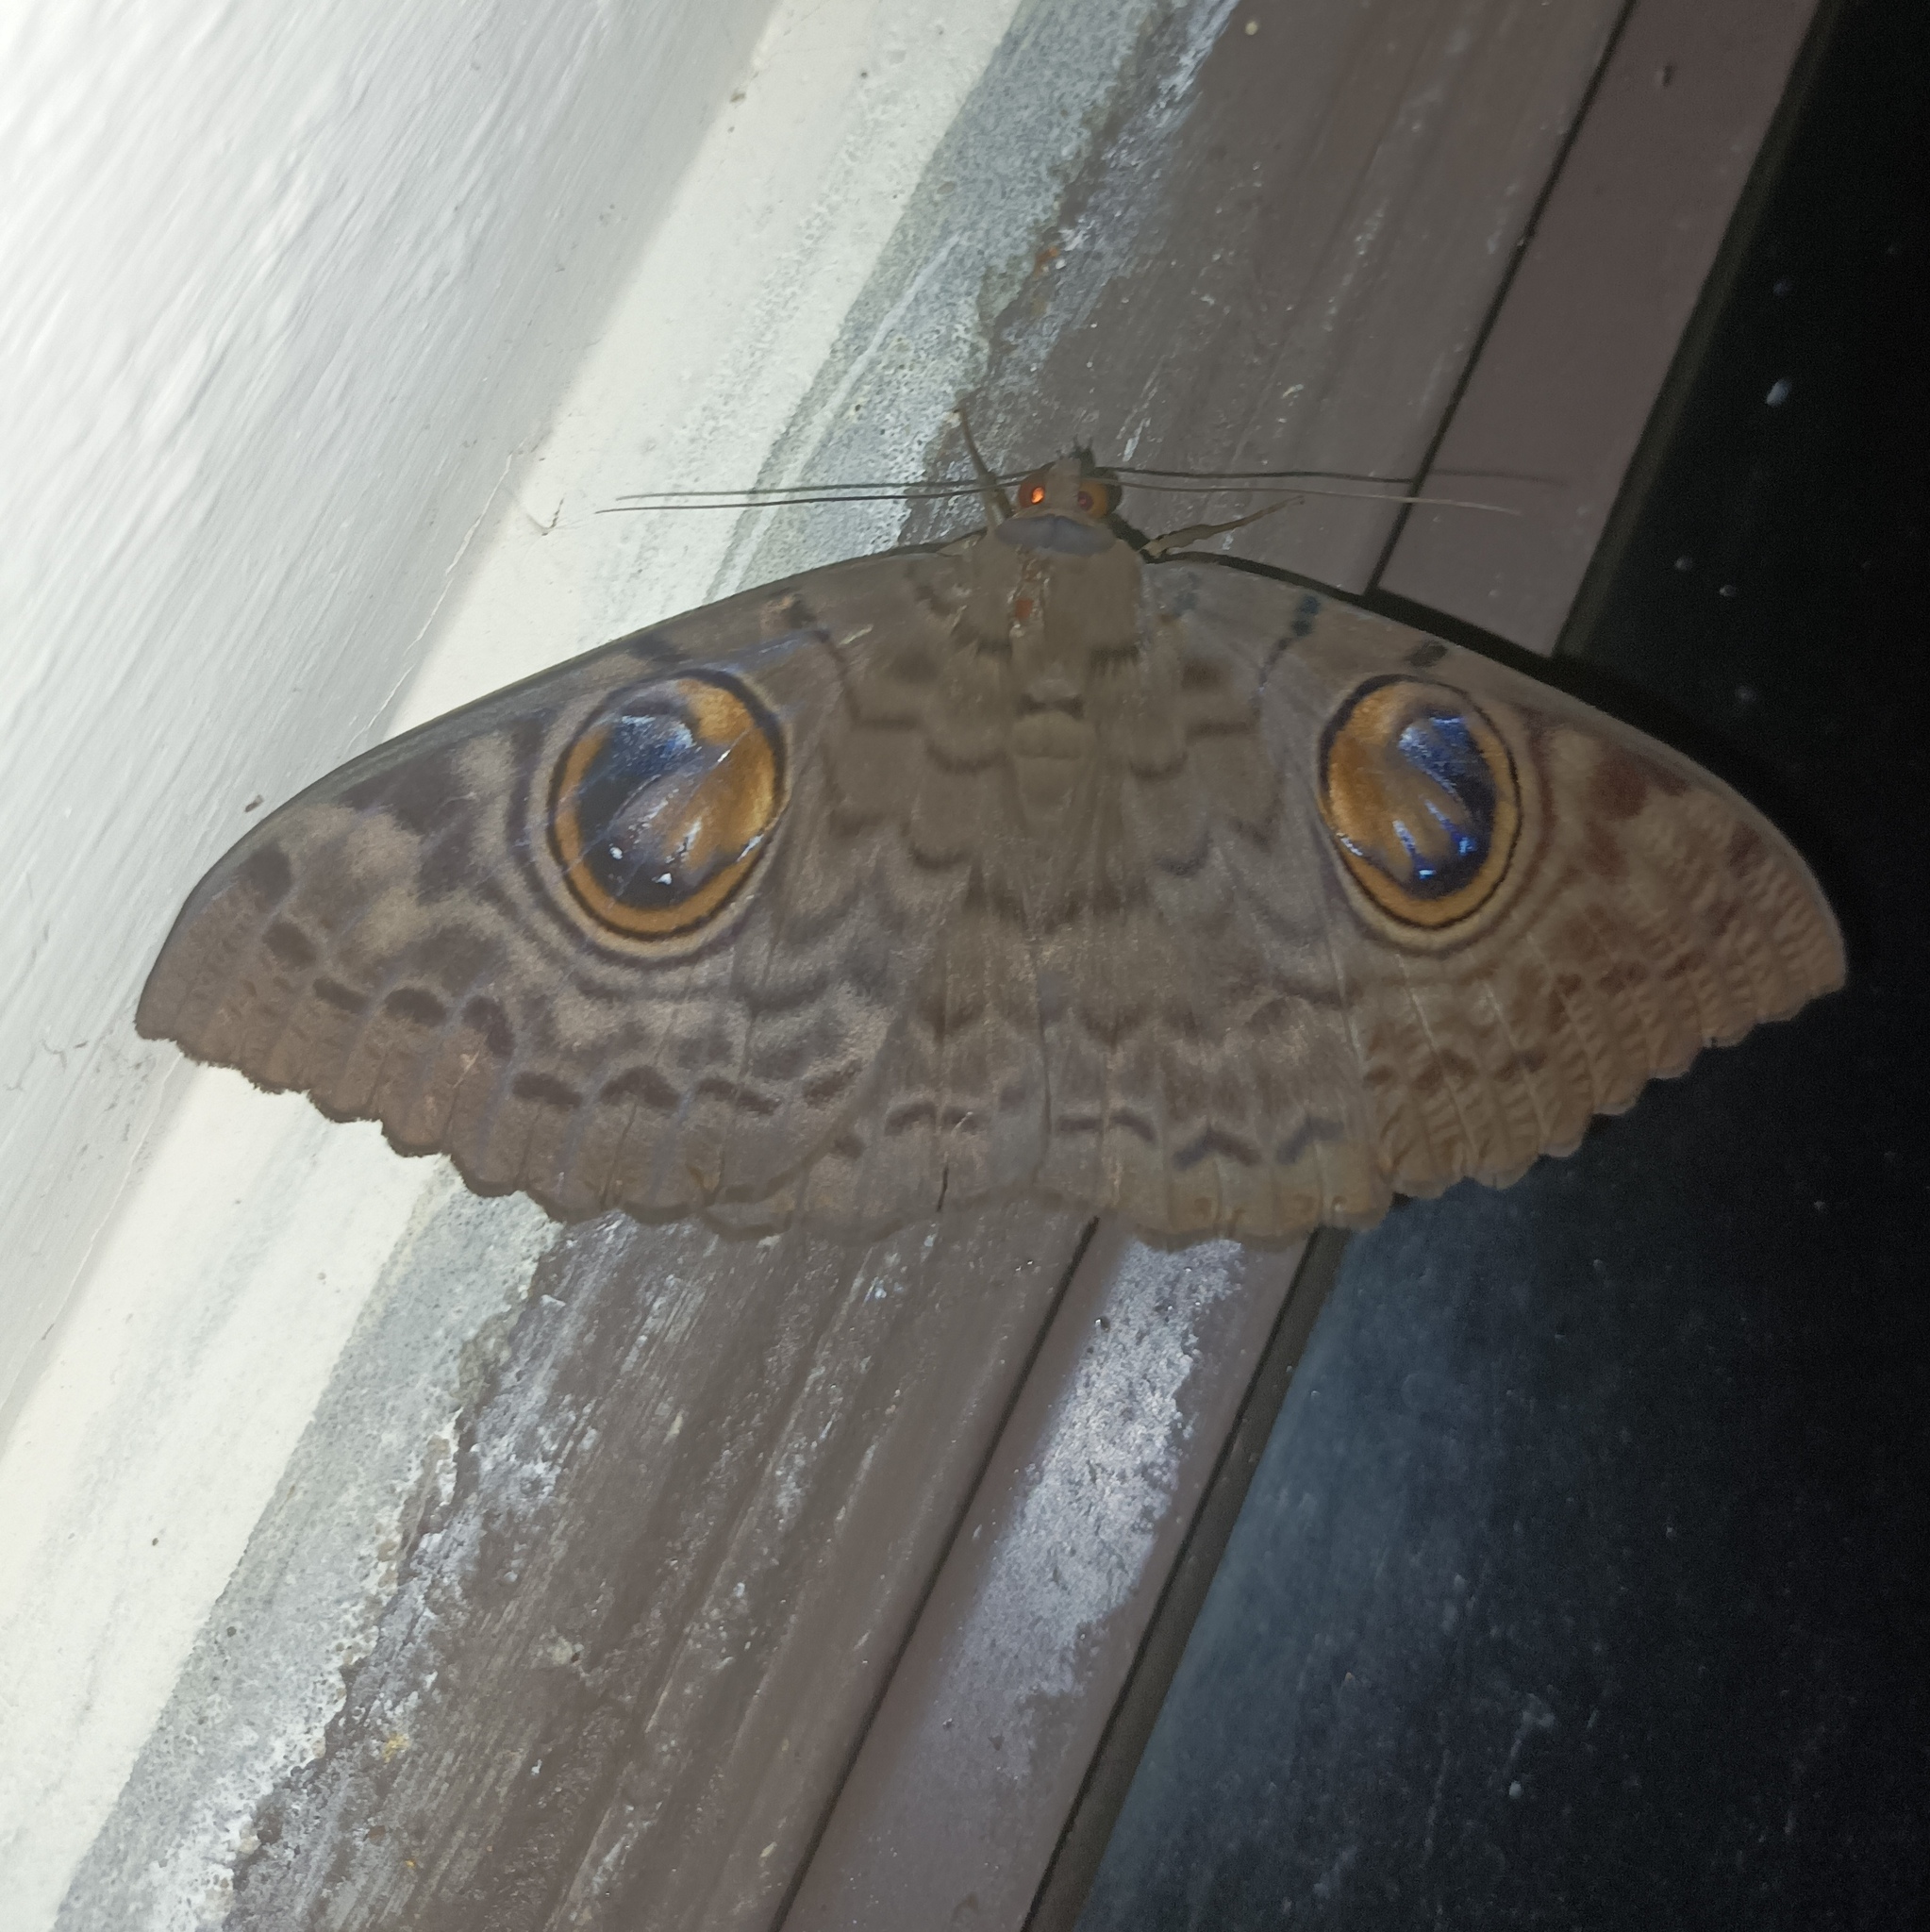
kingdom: Animalia
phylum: Arthropoda
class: Insecta
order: Lepidoptera
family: Erebidae
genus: Erebus
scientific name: Erebus macrops
